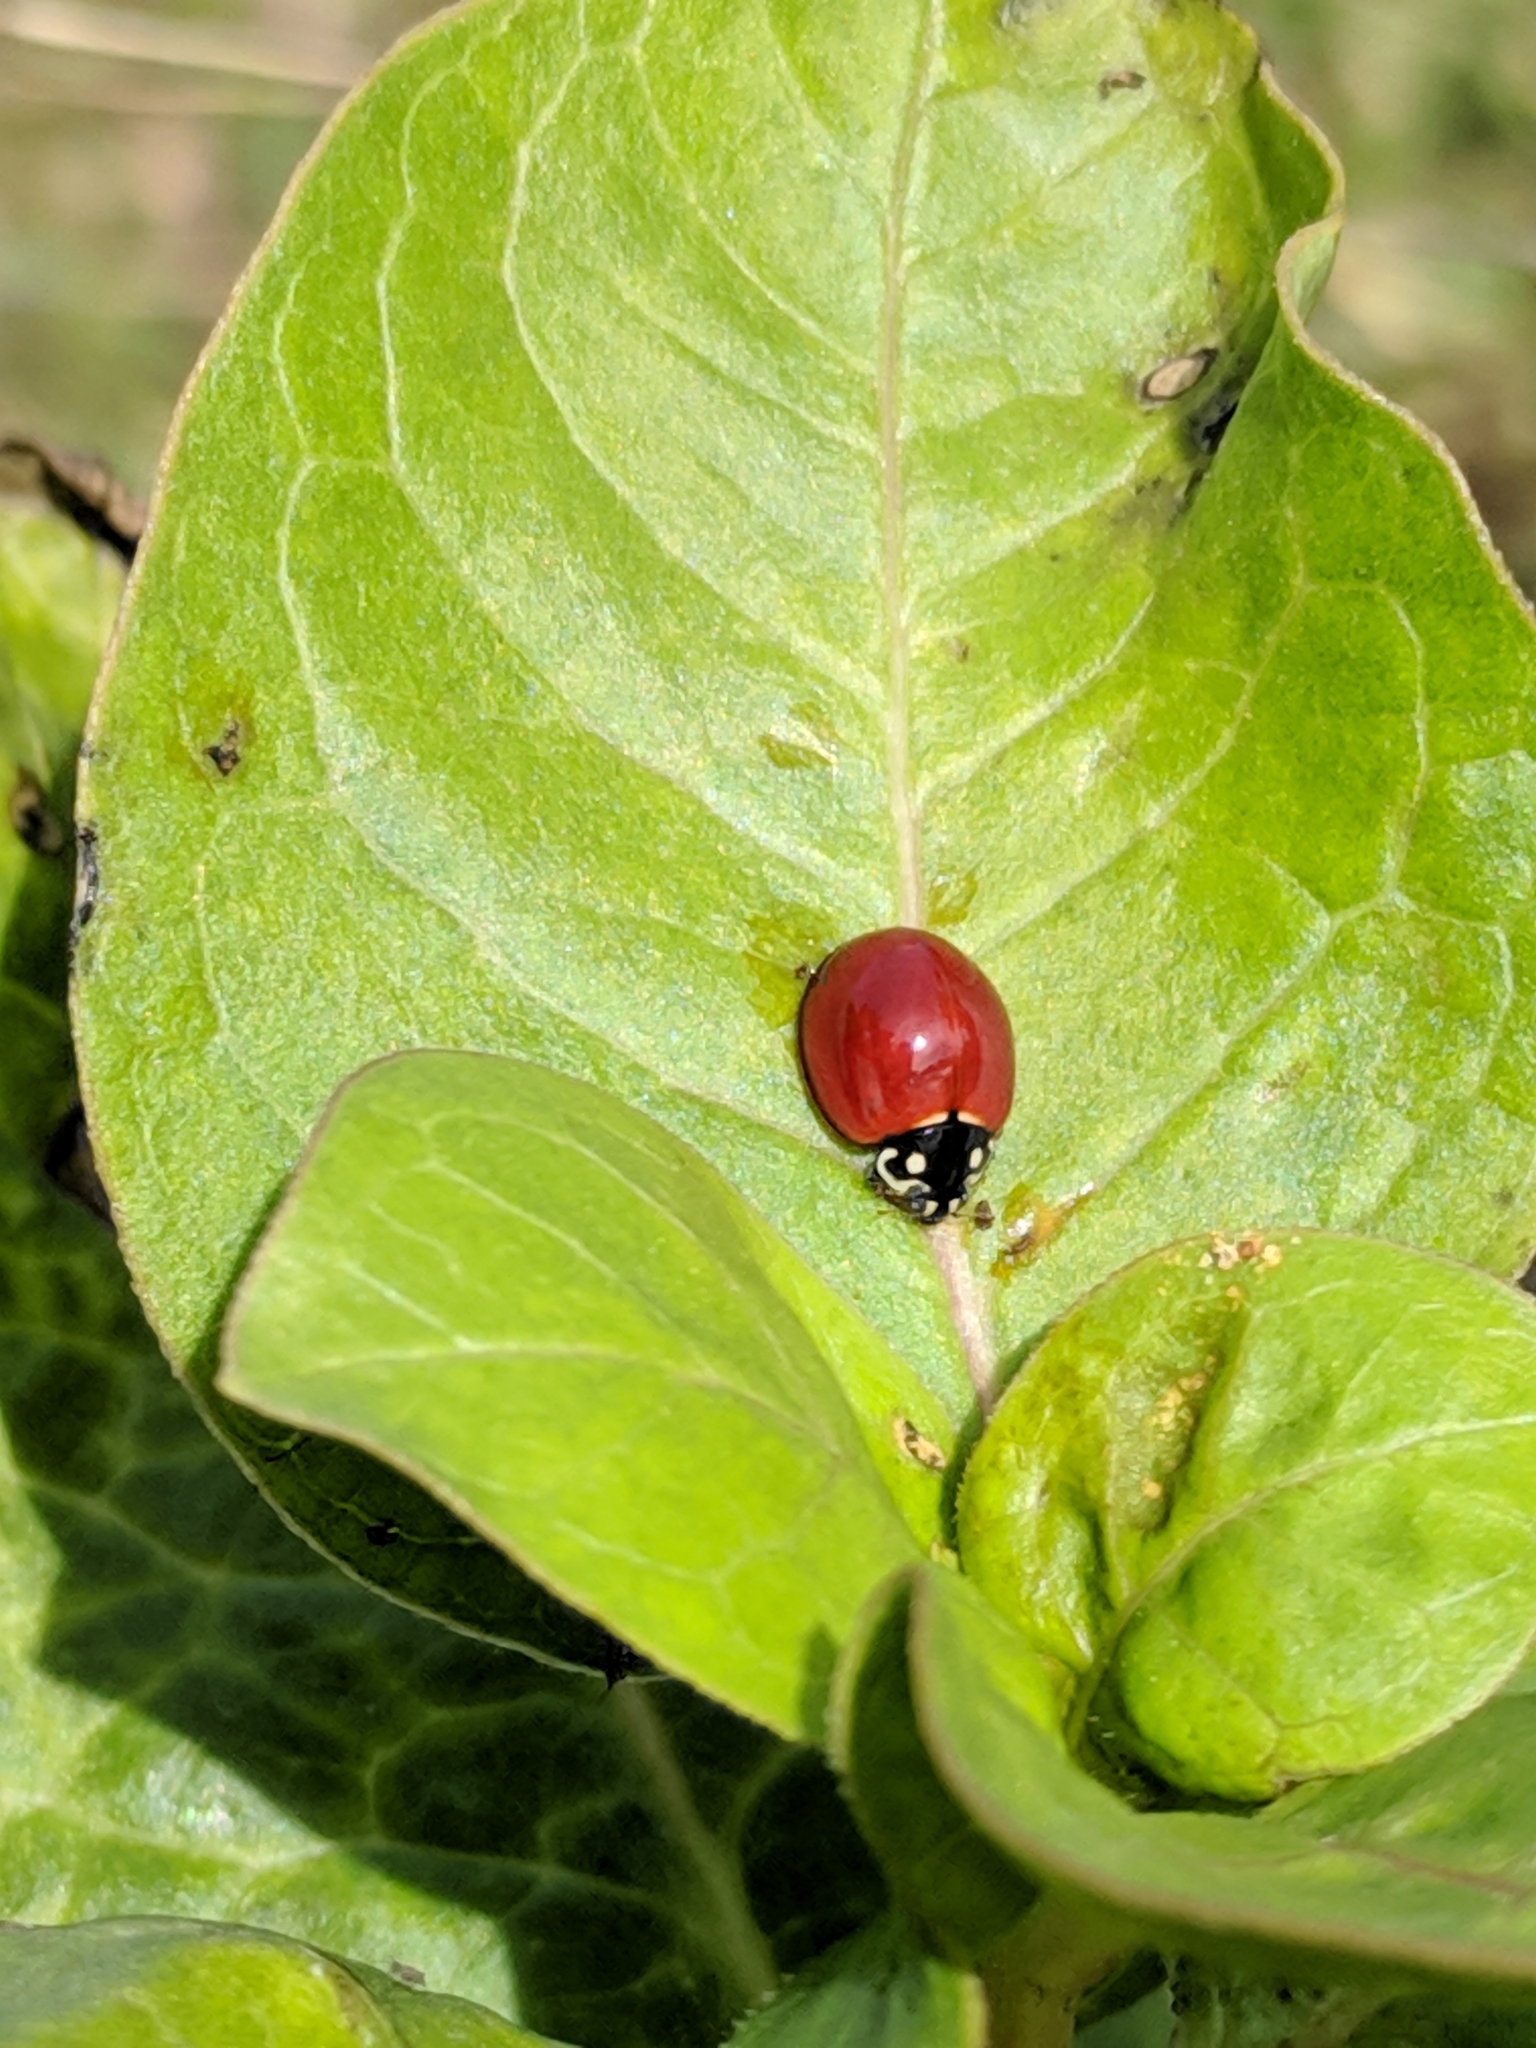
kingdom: Animalia
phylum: Arthropoda
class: Insecta
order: Coleoptera
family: Coccinellidae
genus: Cycloneda
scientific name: Cycloneda sanguinea
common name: Ladybird beetle
